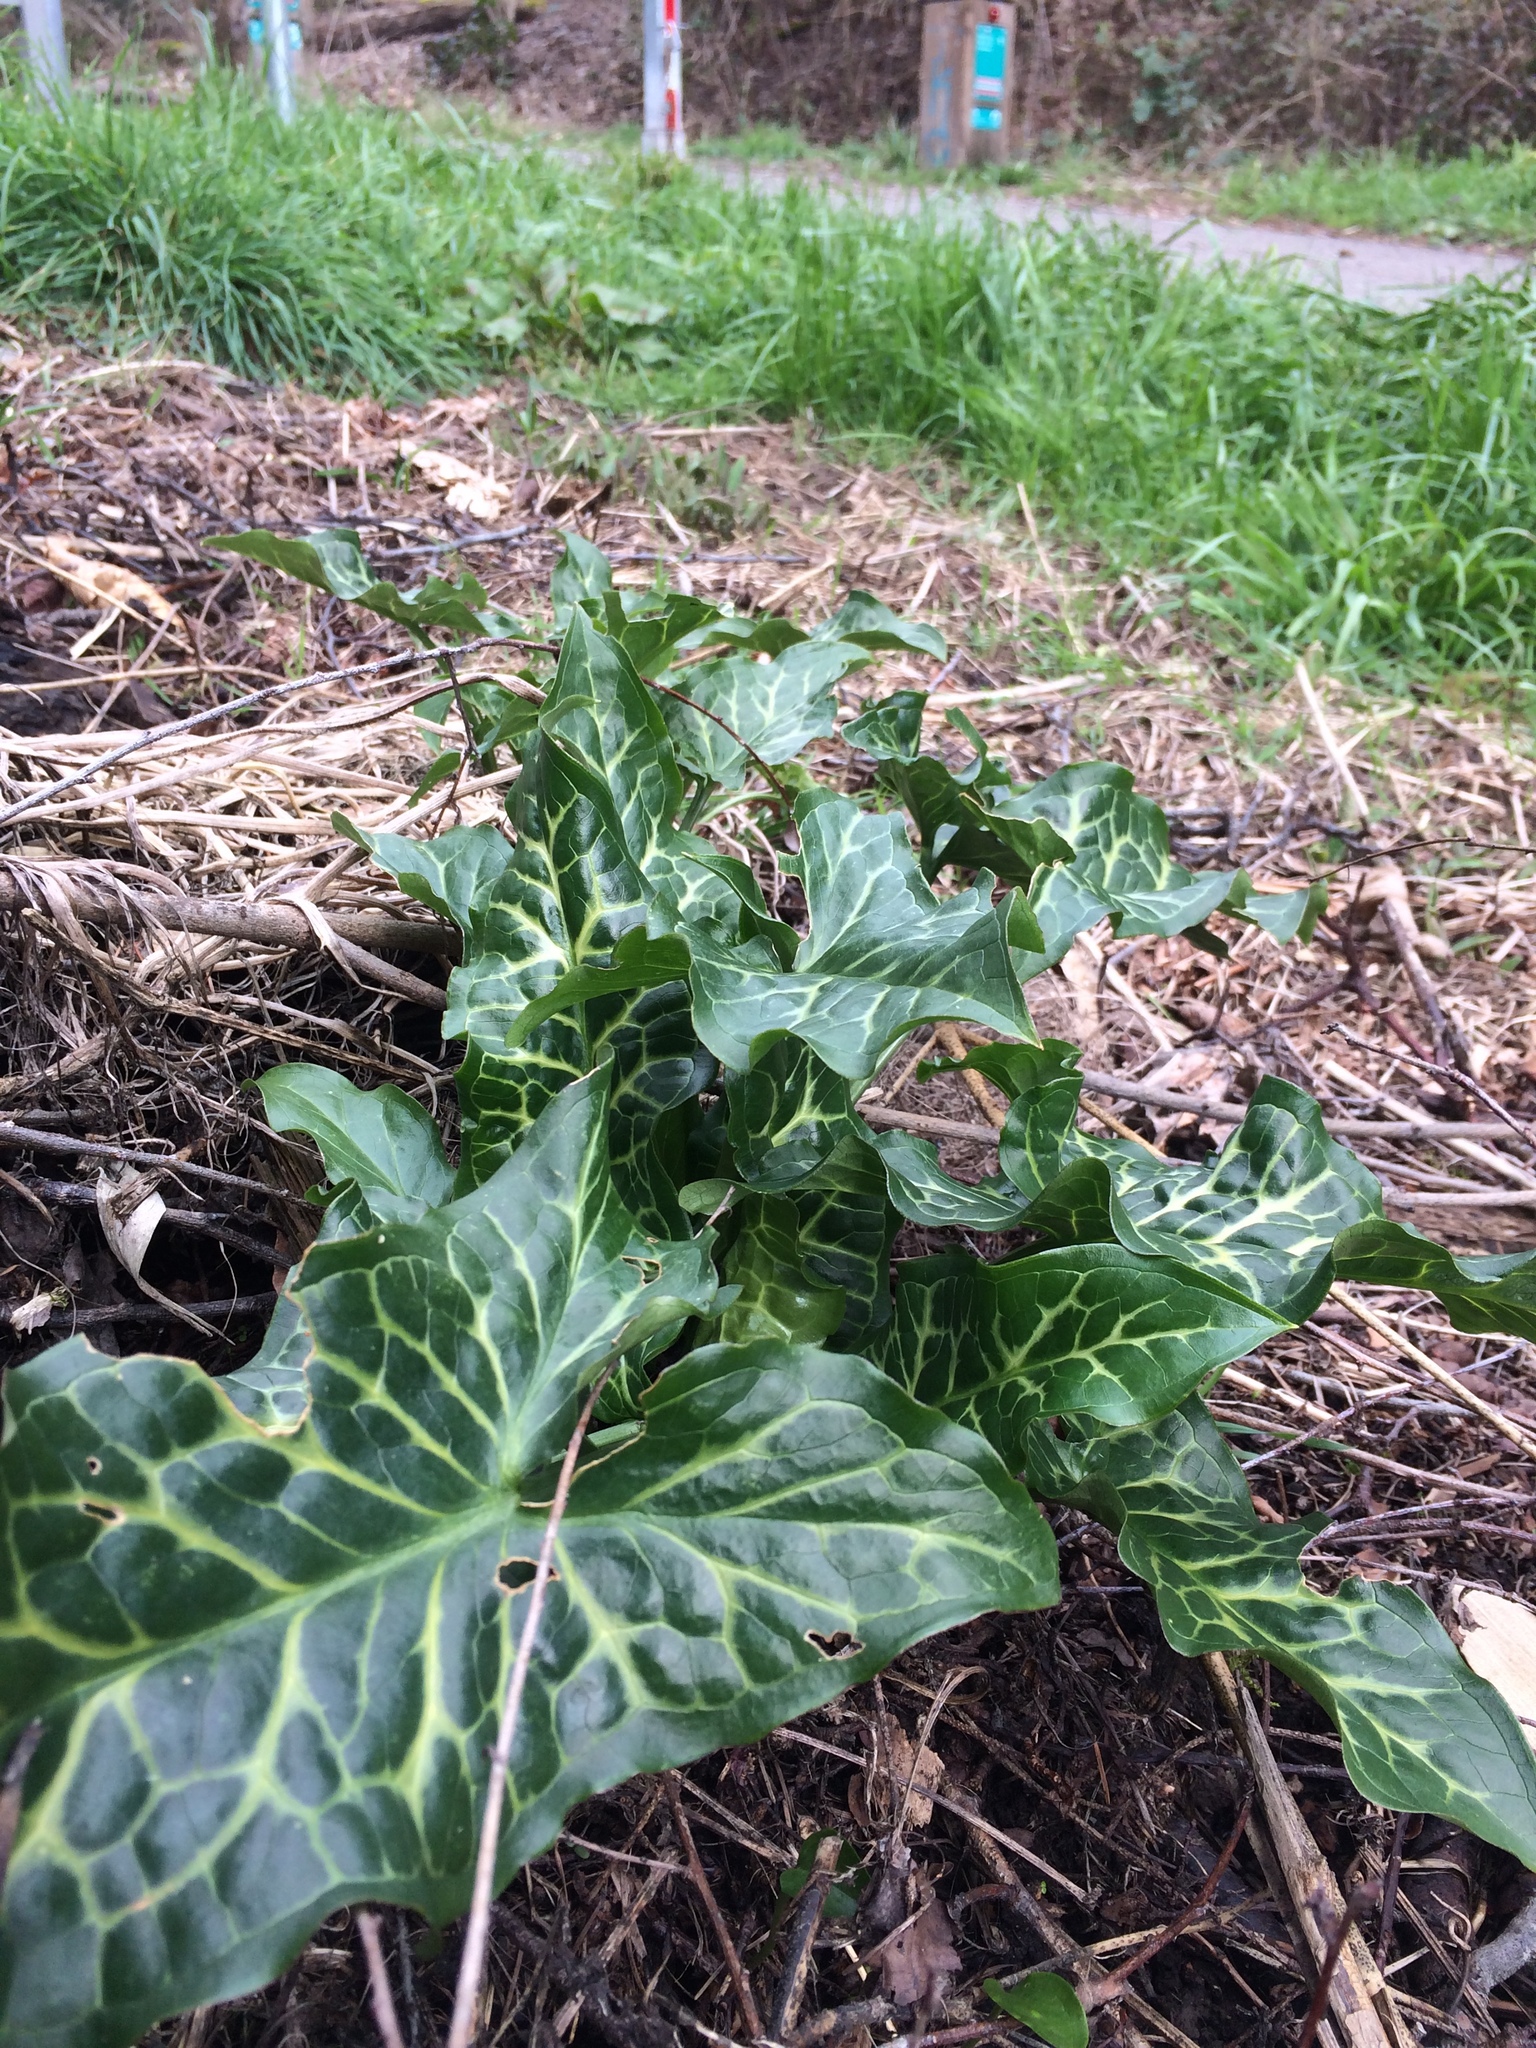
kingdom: Plantae
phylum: Tracheophyta
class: Liliopsida
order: Alismatales
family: Araceae
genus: Arum
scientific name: Arum italicum
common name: Italian lords-and-ladies
